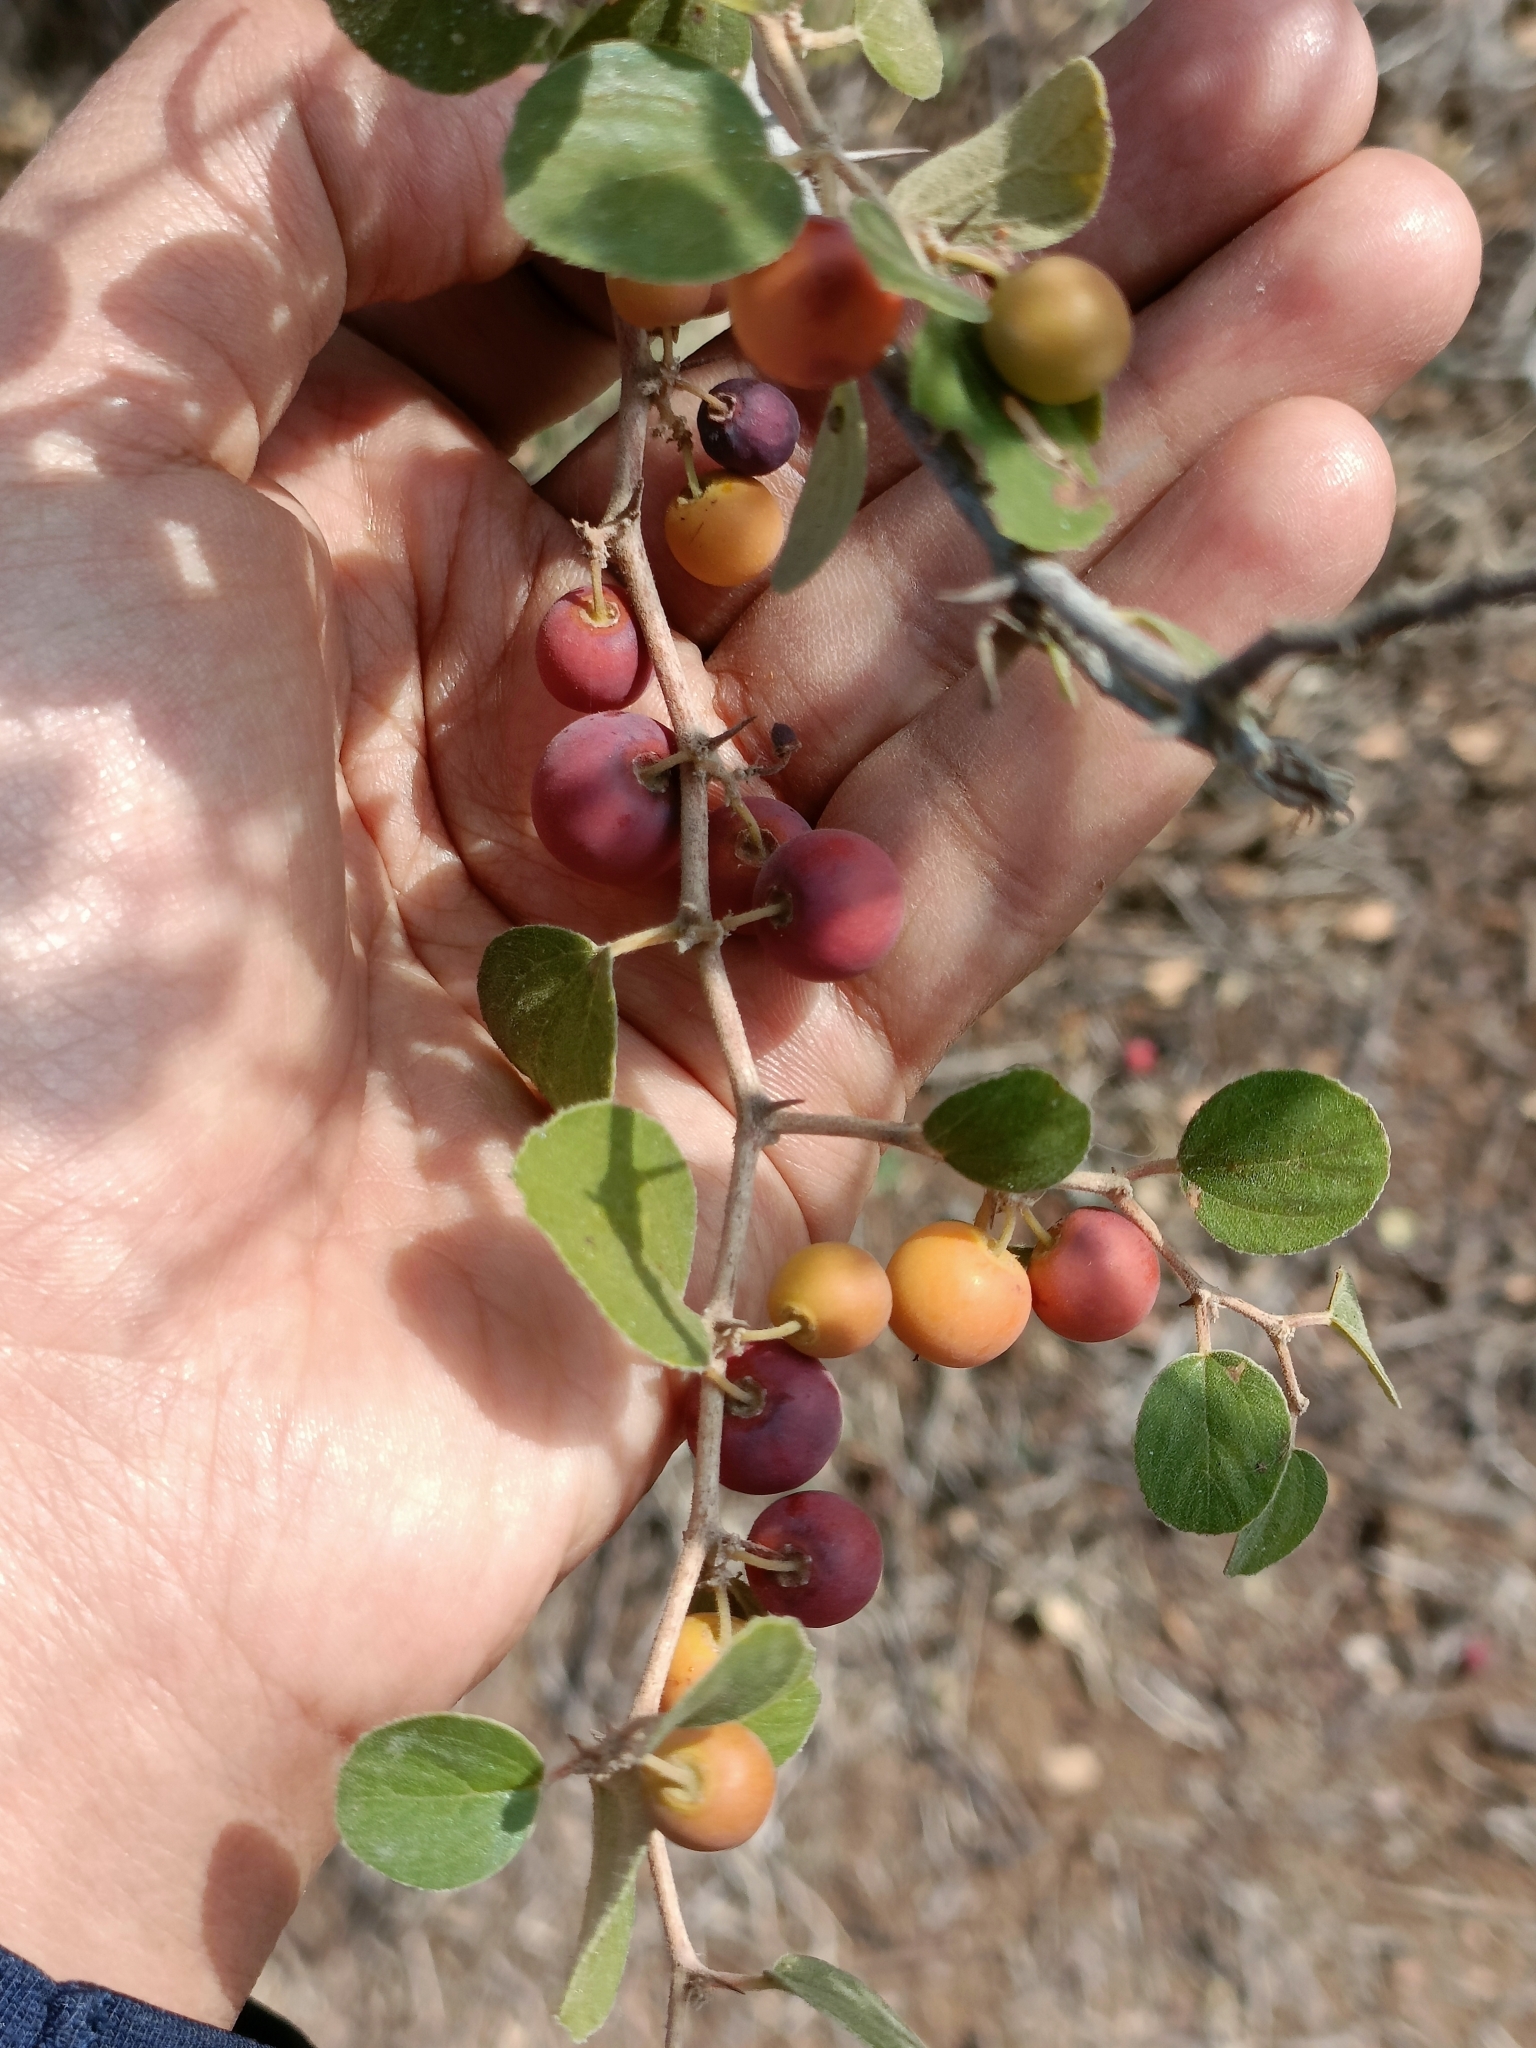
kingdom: Plantae
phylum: Tracheophyta
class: Magnoliopsida
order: Rosales
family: Rhamnaceae
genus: Ziziphus
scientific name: Ziziphus nummularia
